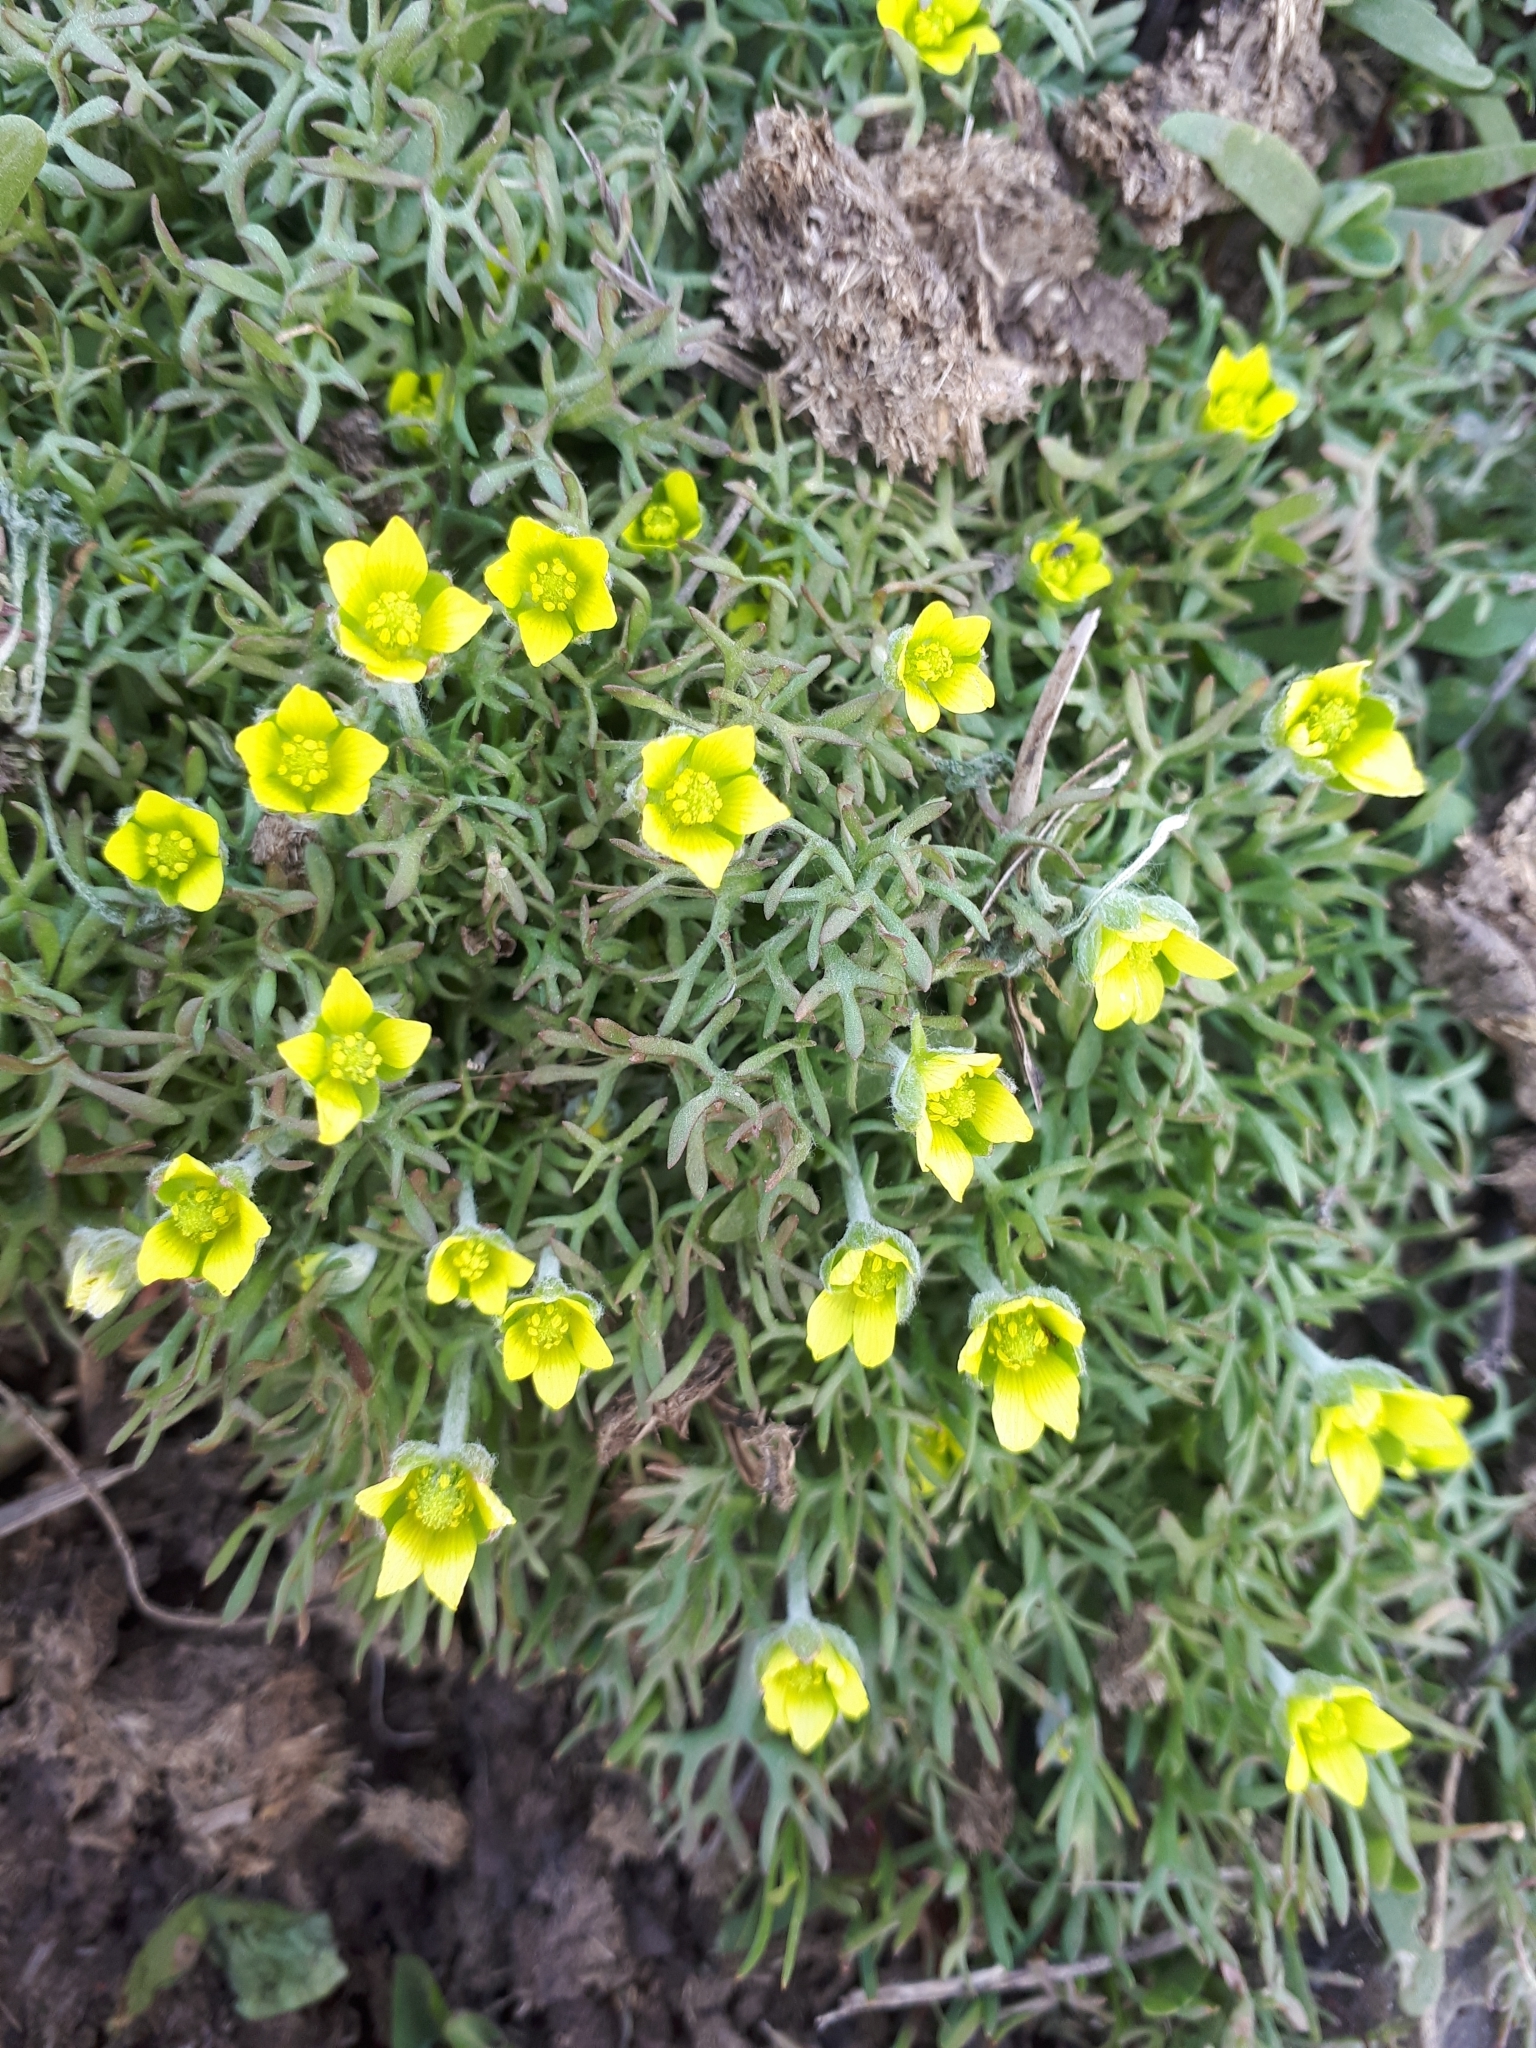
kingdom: Plantae
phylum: Tracheophyta
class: Magnoliopsida
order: Ranunculales
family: Ranunculaceae
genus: Ceratocephala
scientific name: Ceratocephala orthoceras
